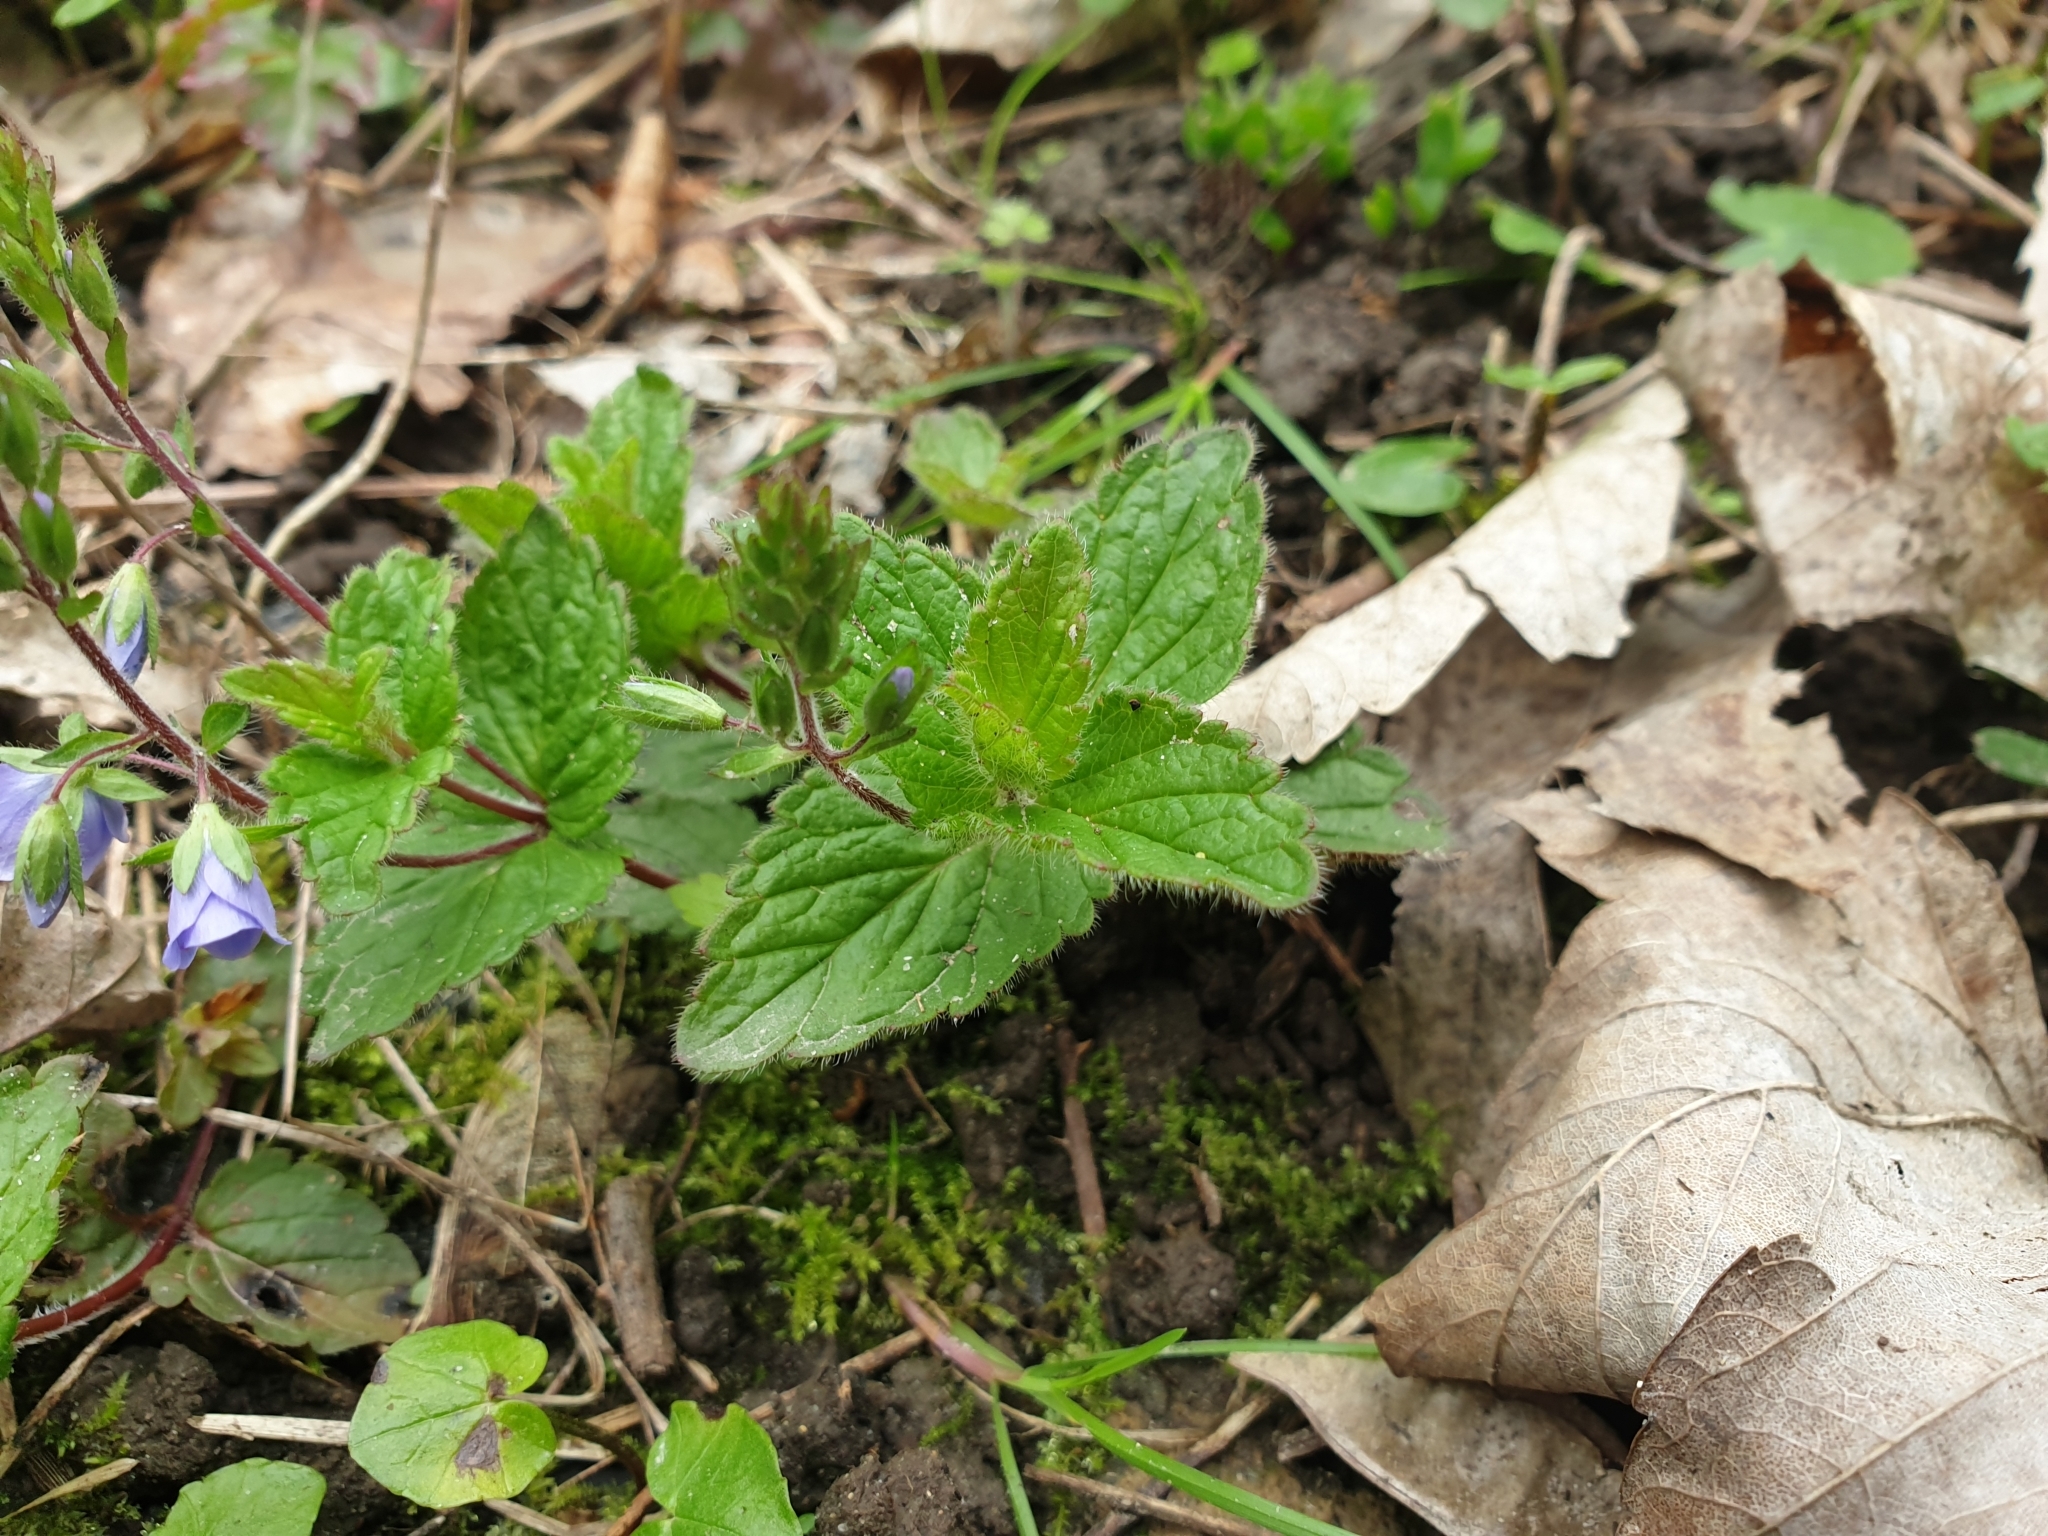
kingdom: Plantae
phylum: Tracheophyta
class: Magnoliopsida
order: Lamiales
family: Plantaginaceae
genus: Veronica
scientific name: Veronica chamaedrys
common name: Germander speedwell
